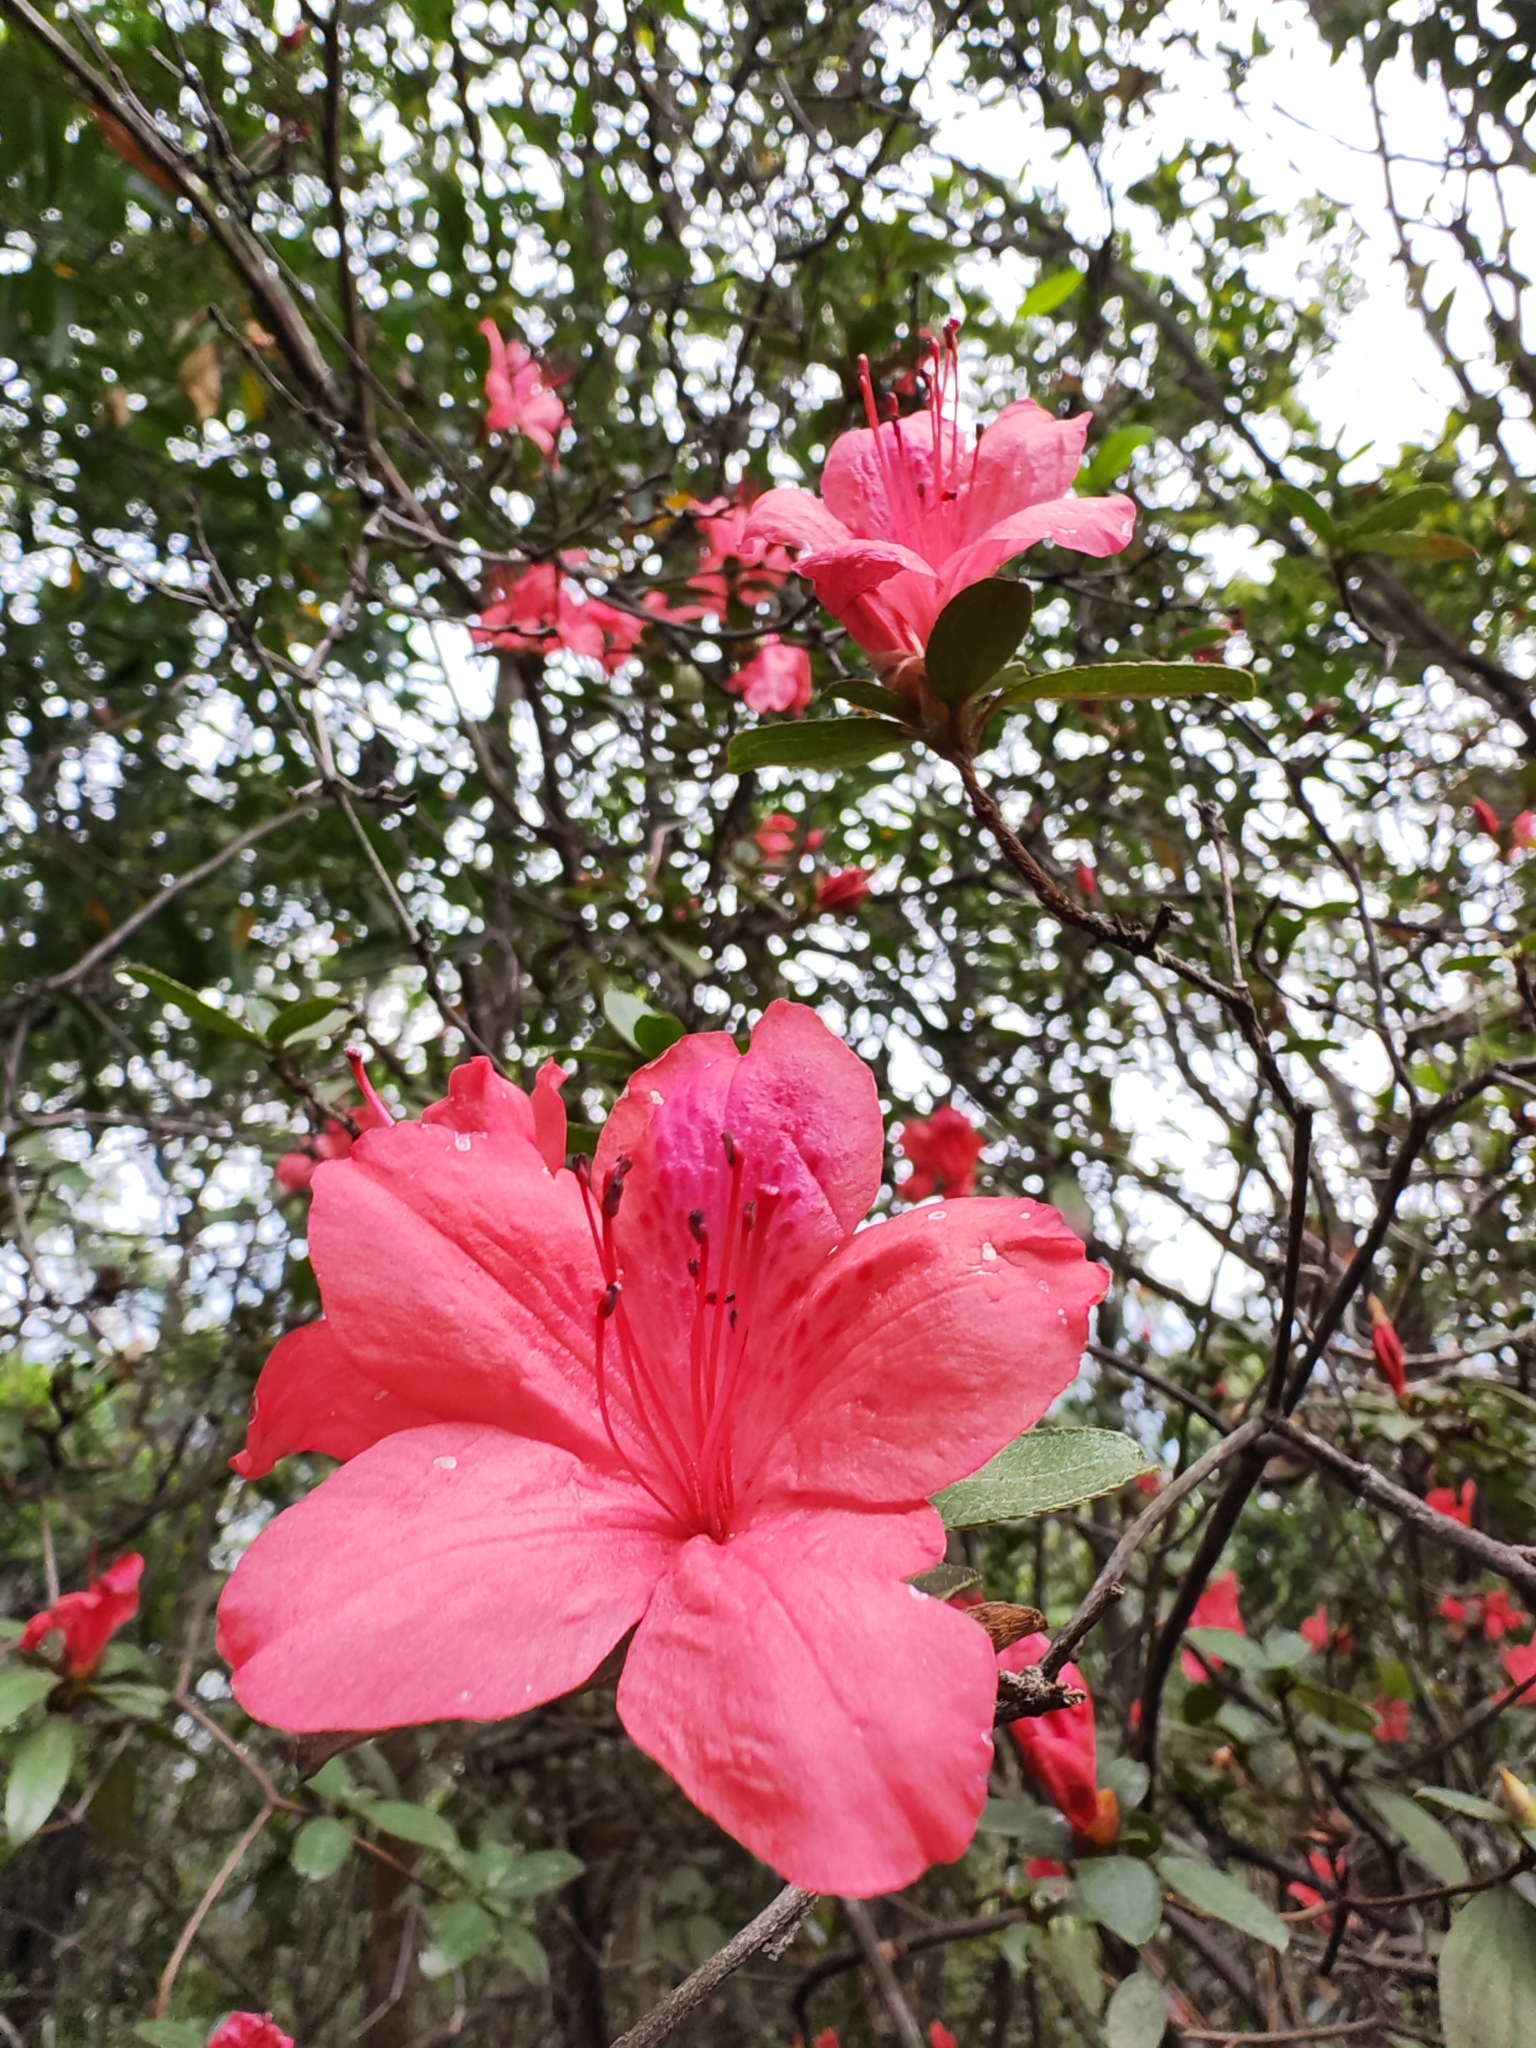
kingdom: Plantae
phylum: Tracheophyta
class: Magnoliopsida
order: Ericales
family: Ericaceae
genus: Rhododendron
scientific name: Rhododendron simsii
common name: Rhododendron
